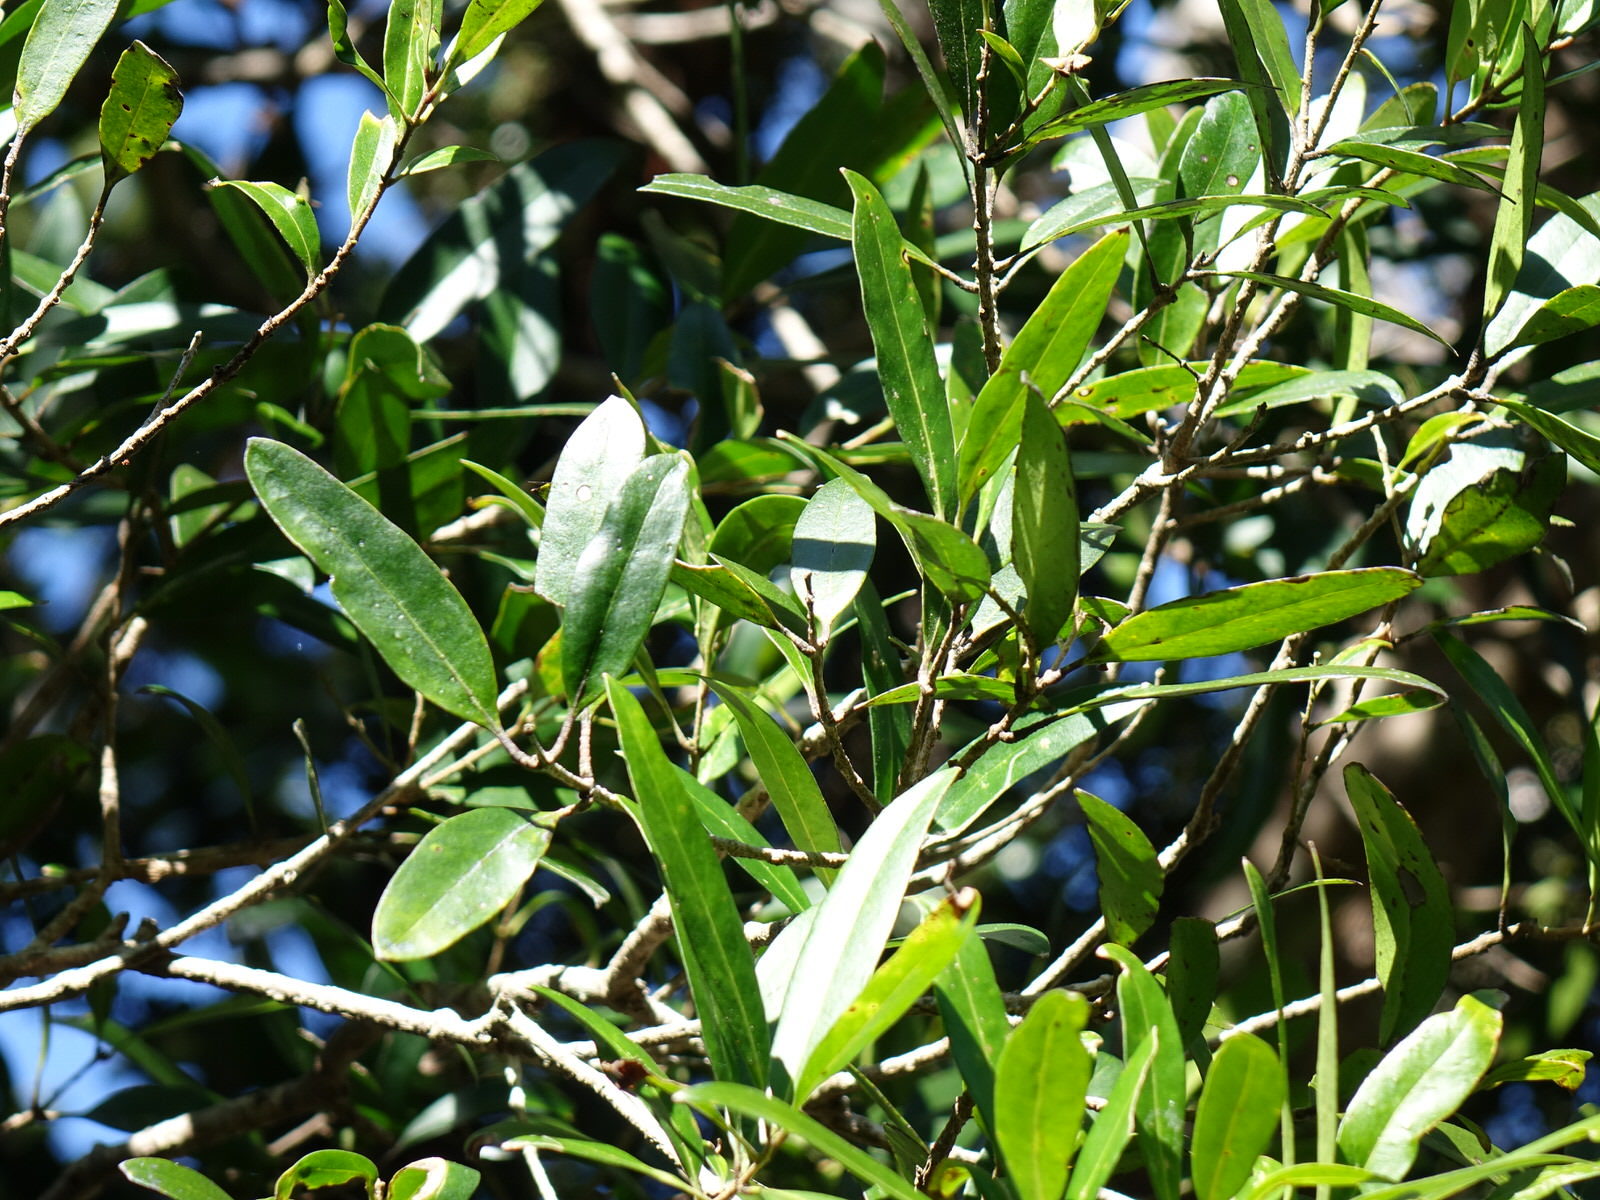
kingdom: Plantae
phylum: Tracheophyta
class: Magnoliopsida
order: Lamiales
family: Oleaceae
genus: Nestegis
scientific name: Nestegis lanceolata
